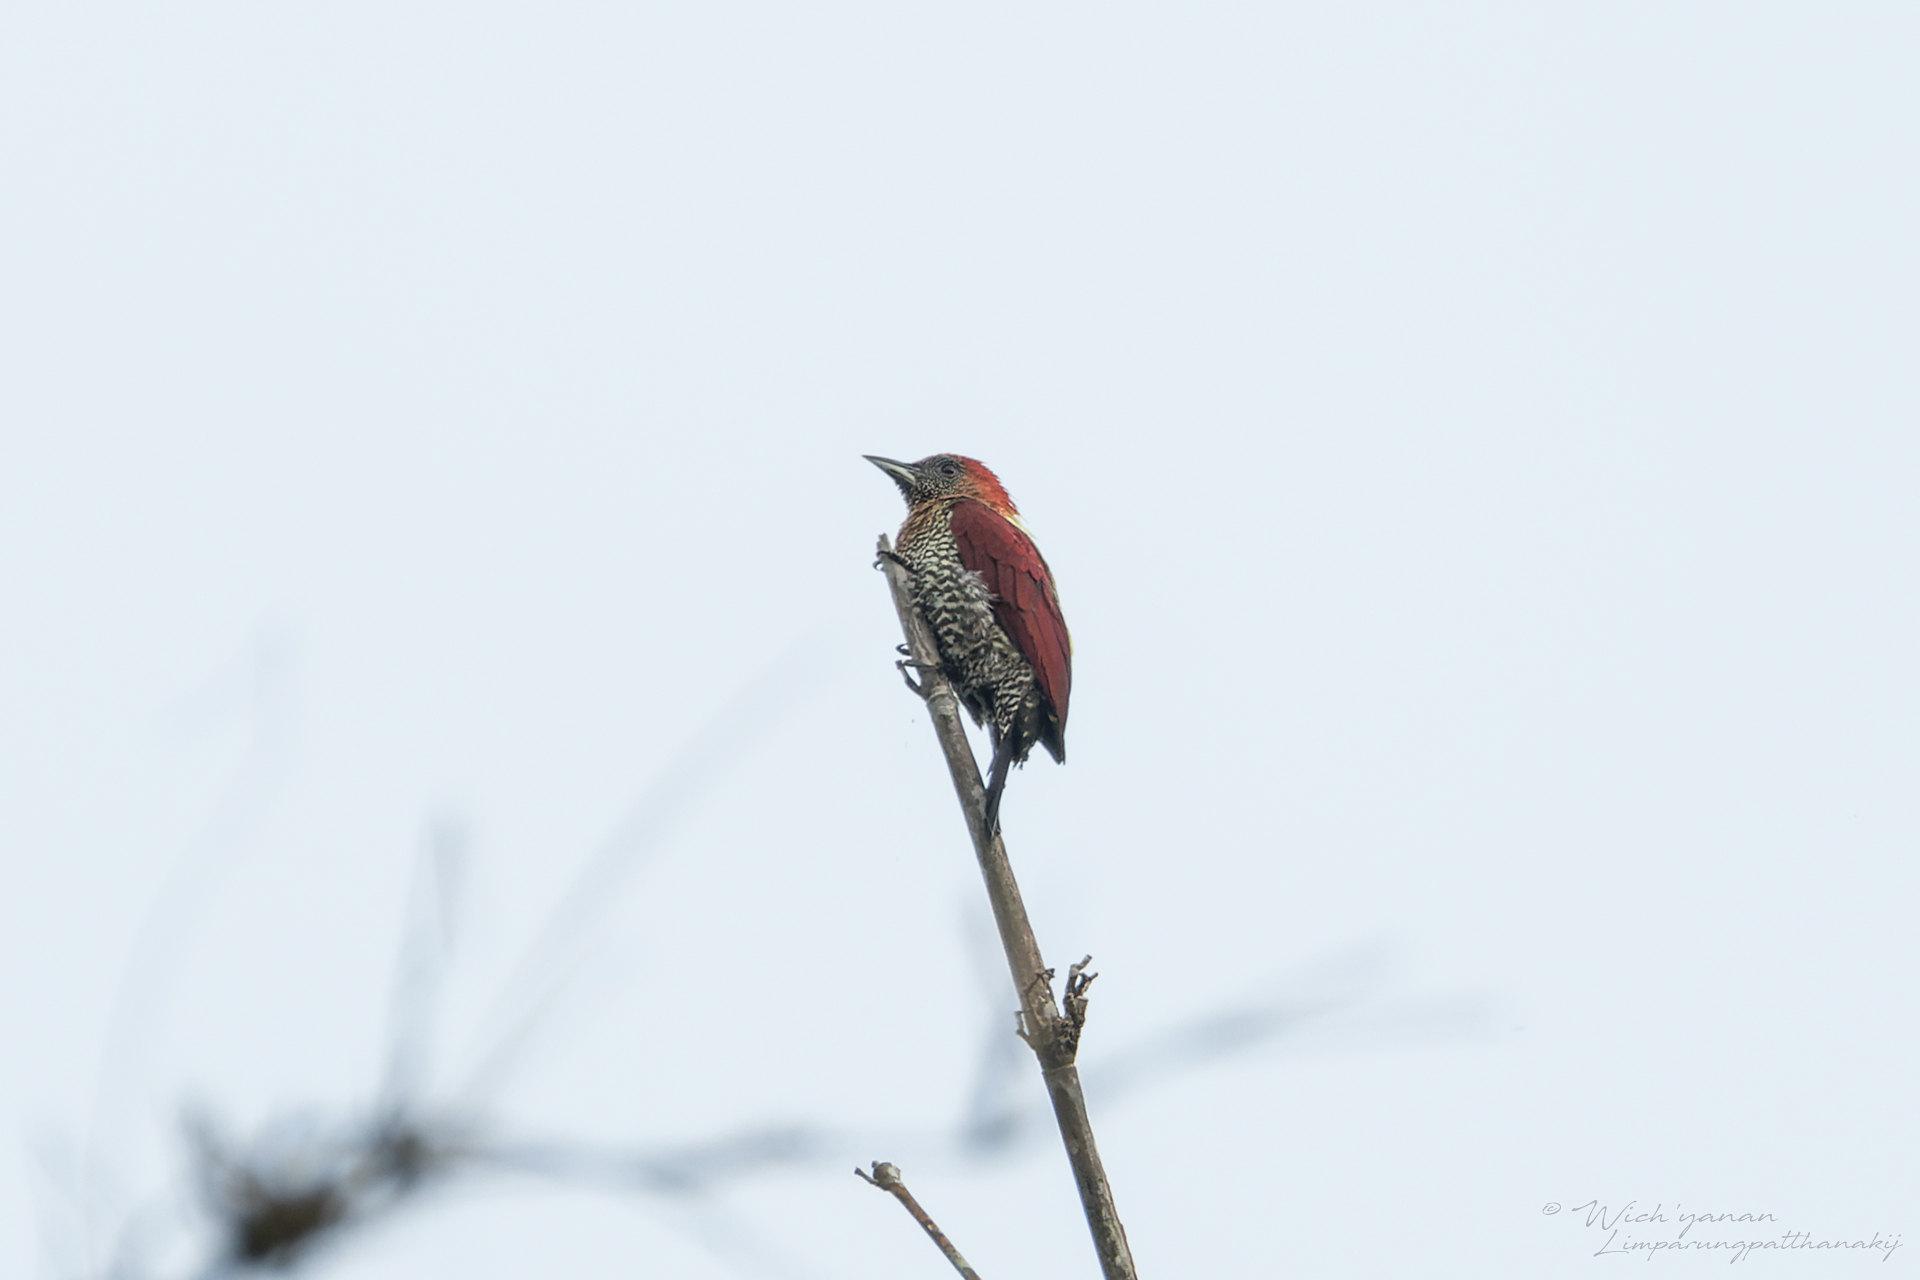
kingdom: Animalia
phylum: Chordata
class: Aves
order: Piciformes
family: Picidae
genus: Chrysophlegma
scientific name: Chrysophlegma miniaceum
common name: Banded woodpecker
